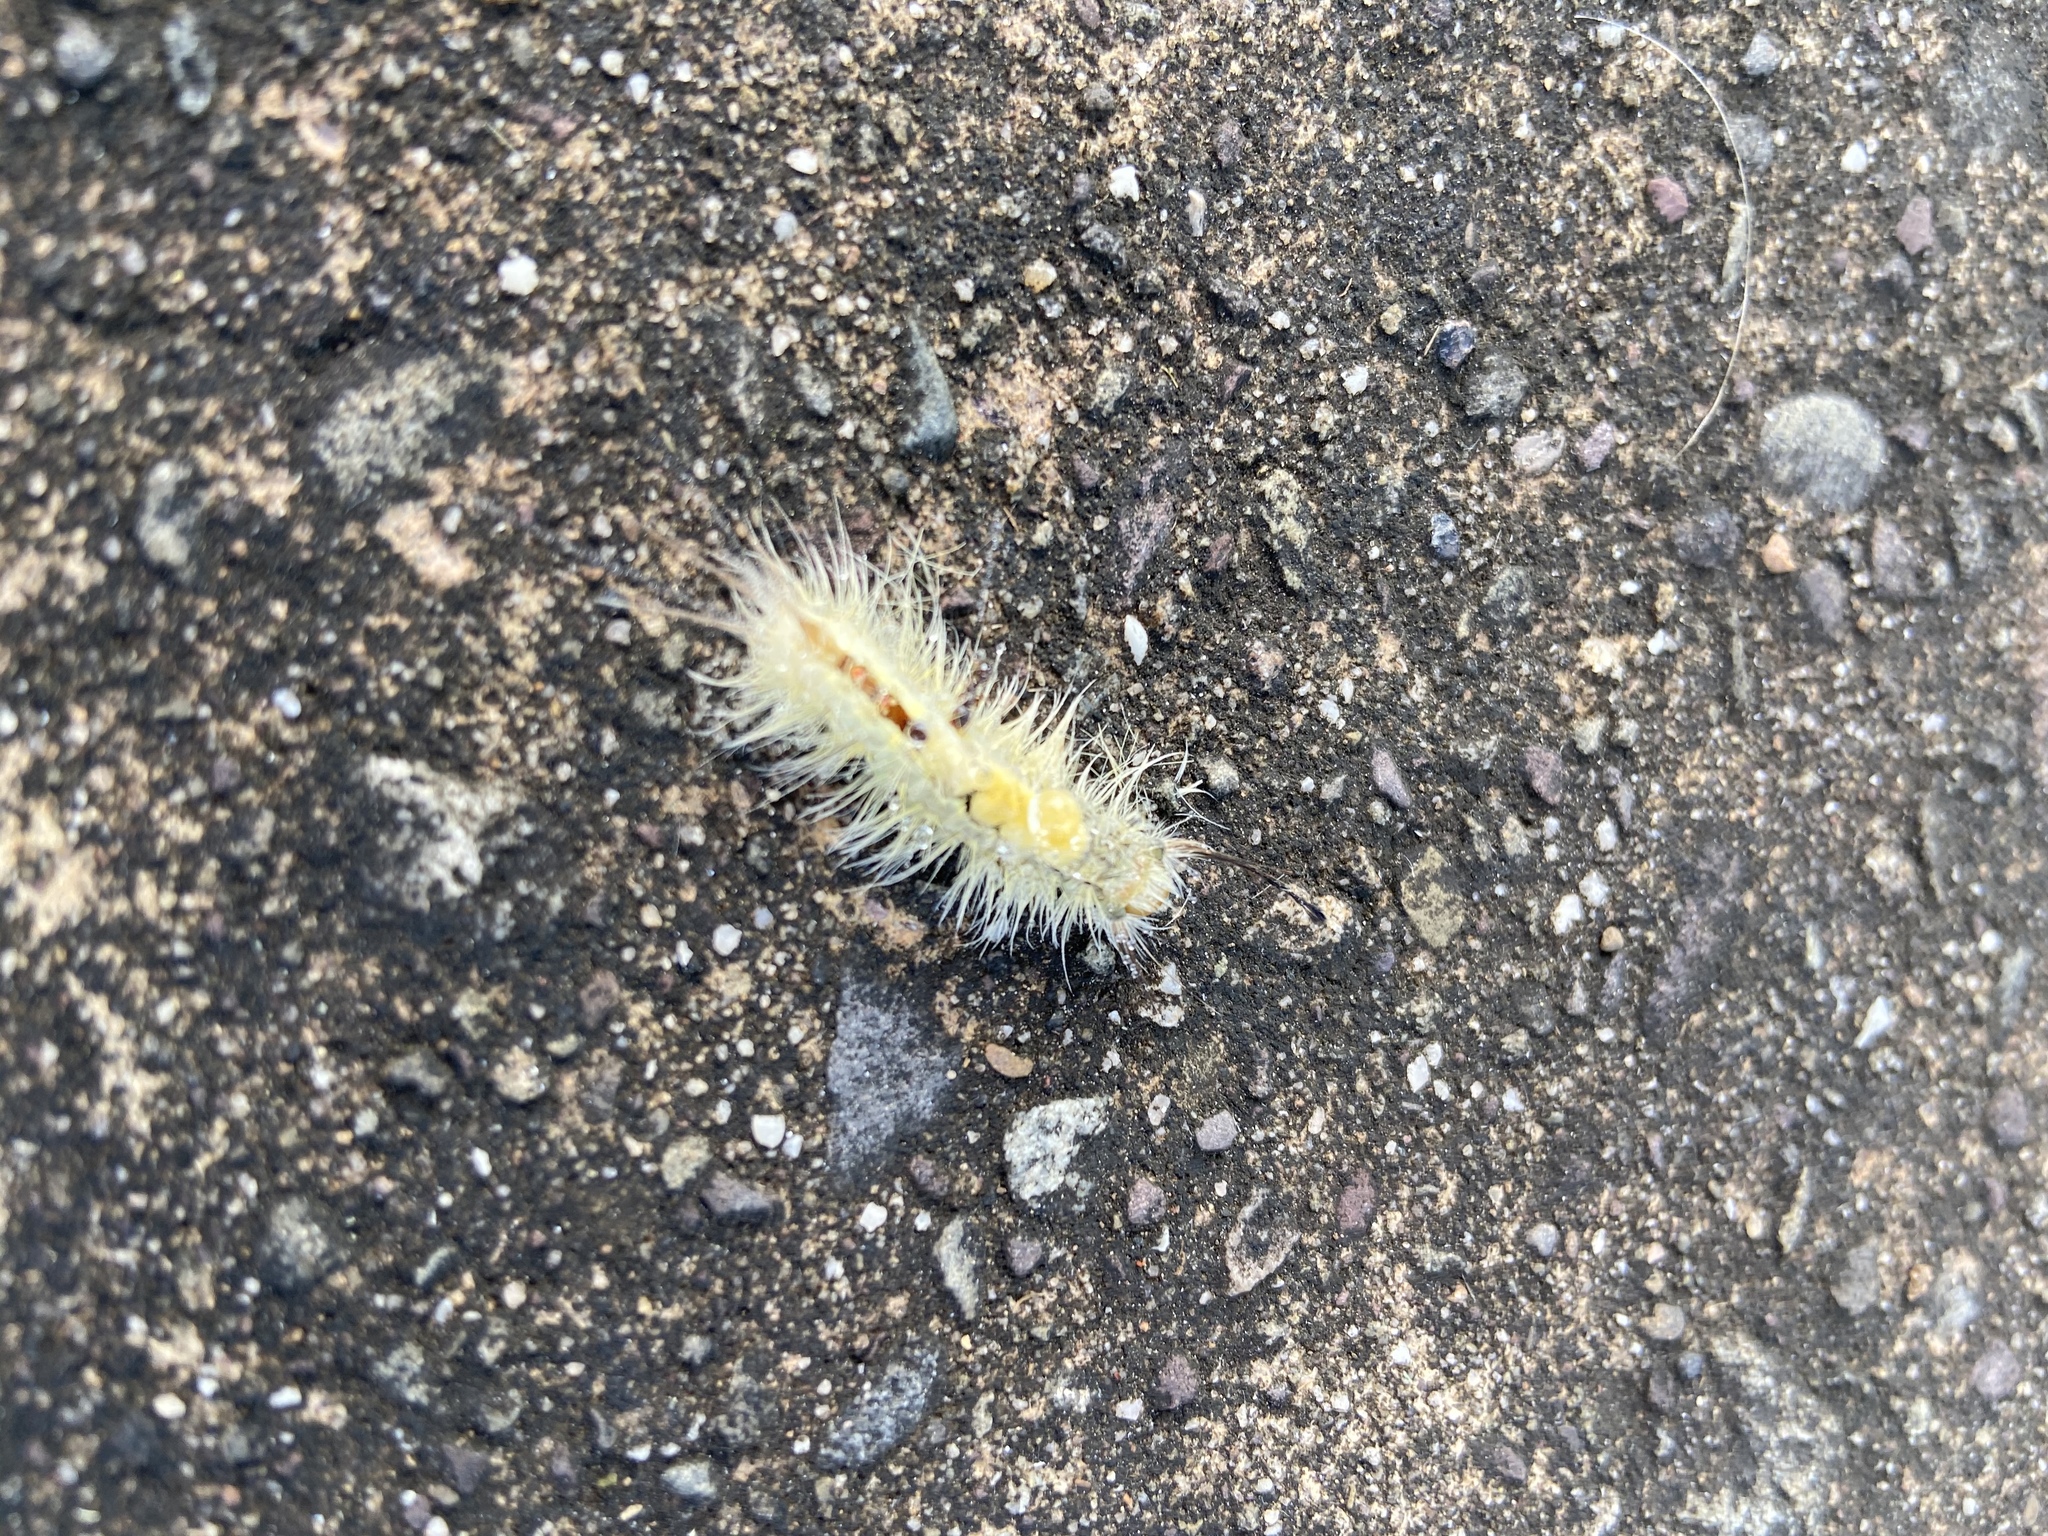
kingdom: Animalia
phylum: Arthropoda
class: Insecta
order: Lepidoptera
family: Erebidae
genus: Orgyia
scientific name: Orgyia leucostigma
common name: White-marked tussock moth
